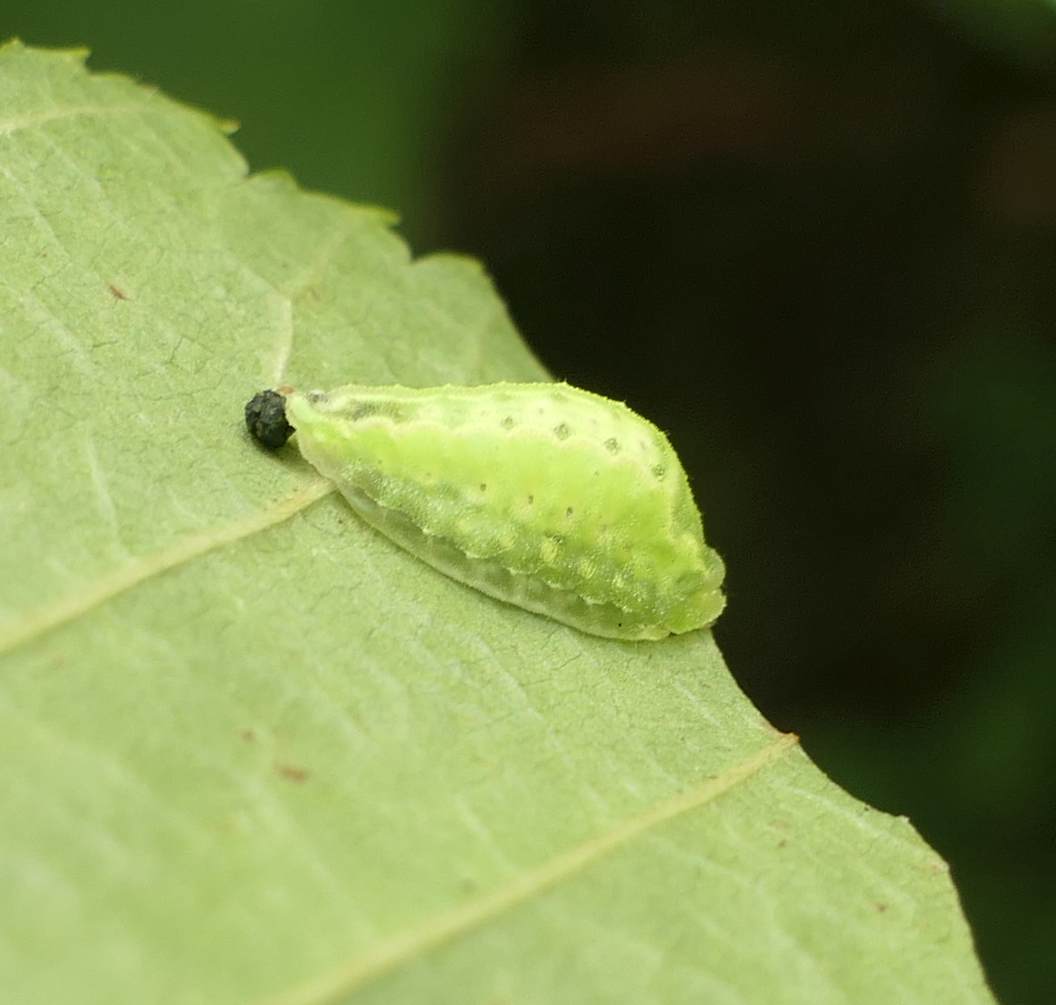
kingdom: Animalia
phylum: Arthropoda
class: Insecta
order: Lepidoptera
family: Limacodidae
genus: Packardia
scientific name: Packardia elegans
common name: Elegant tailed slug moth
